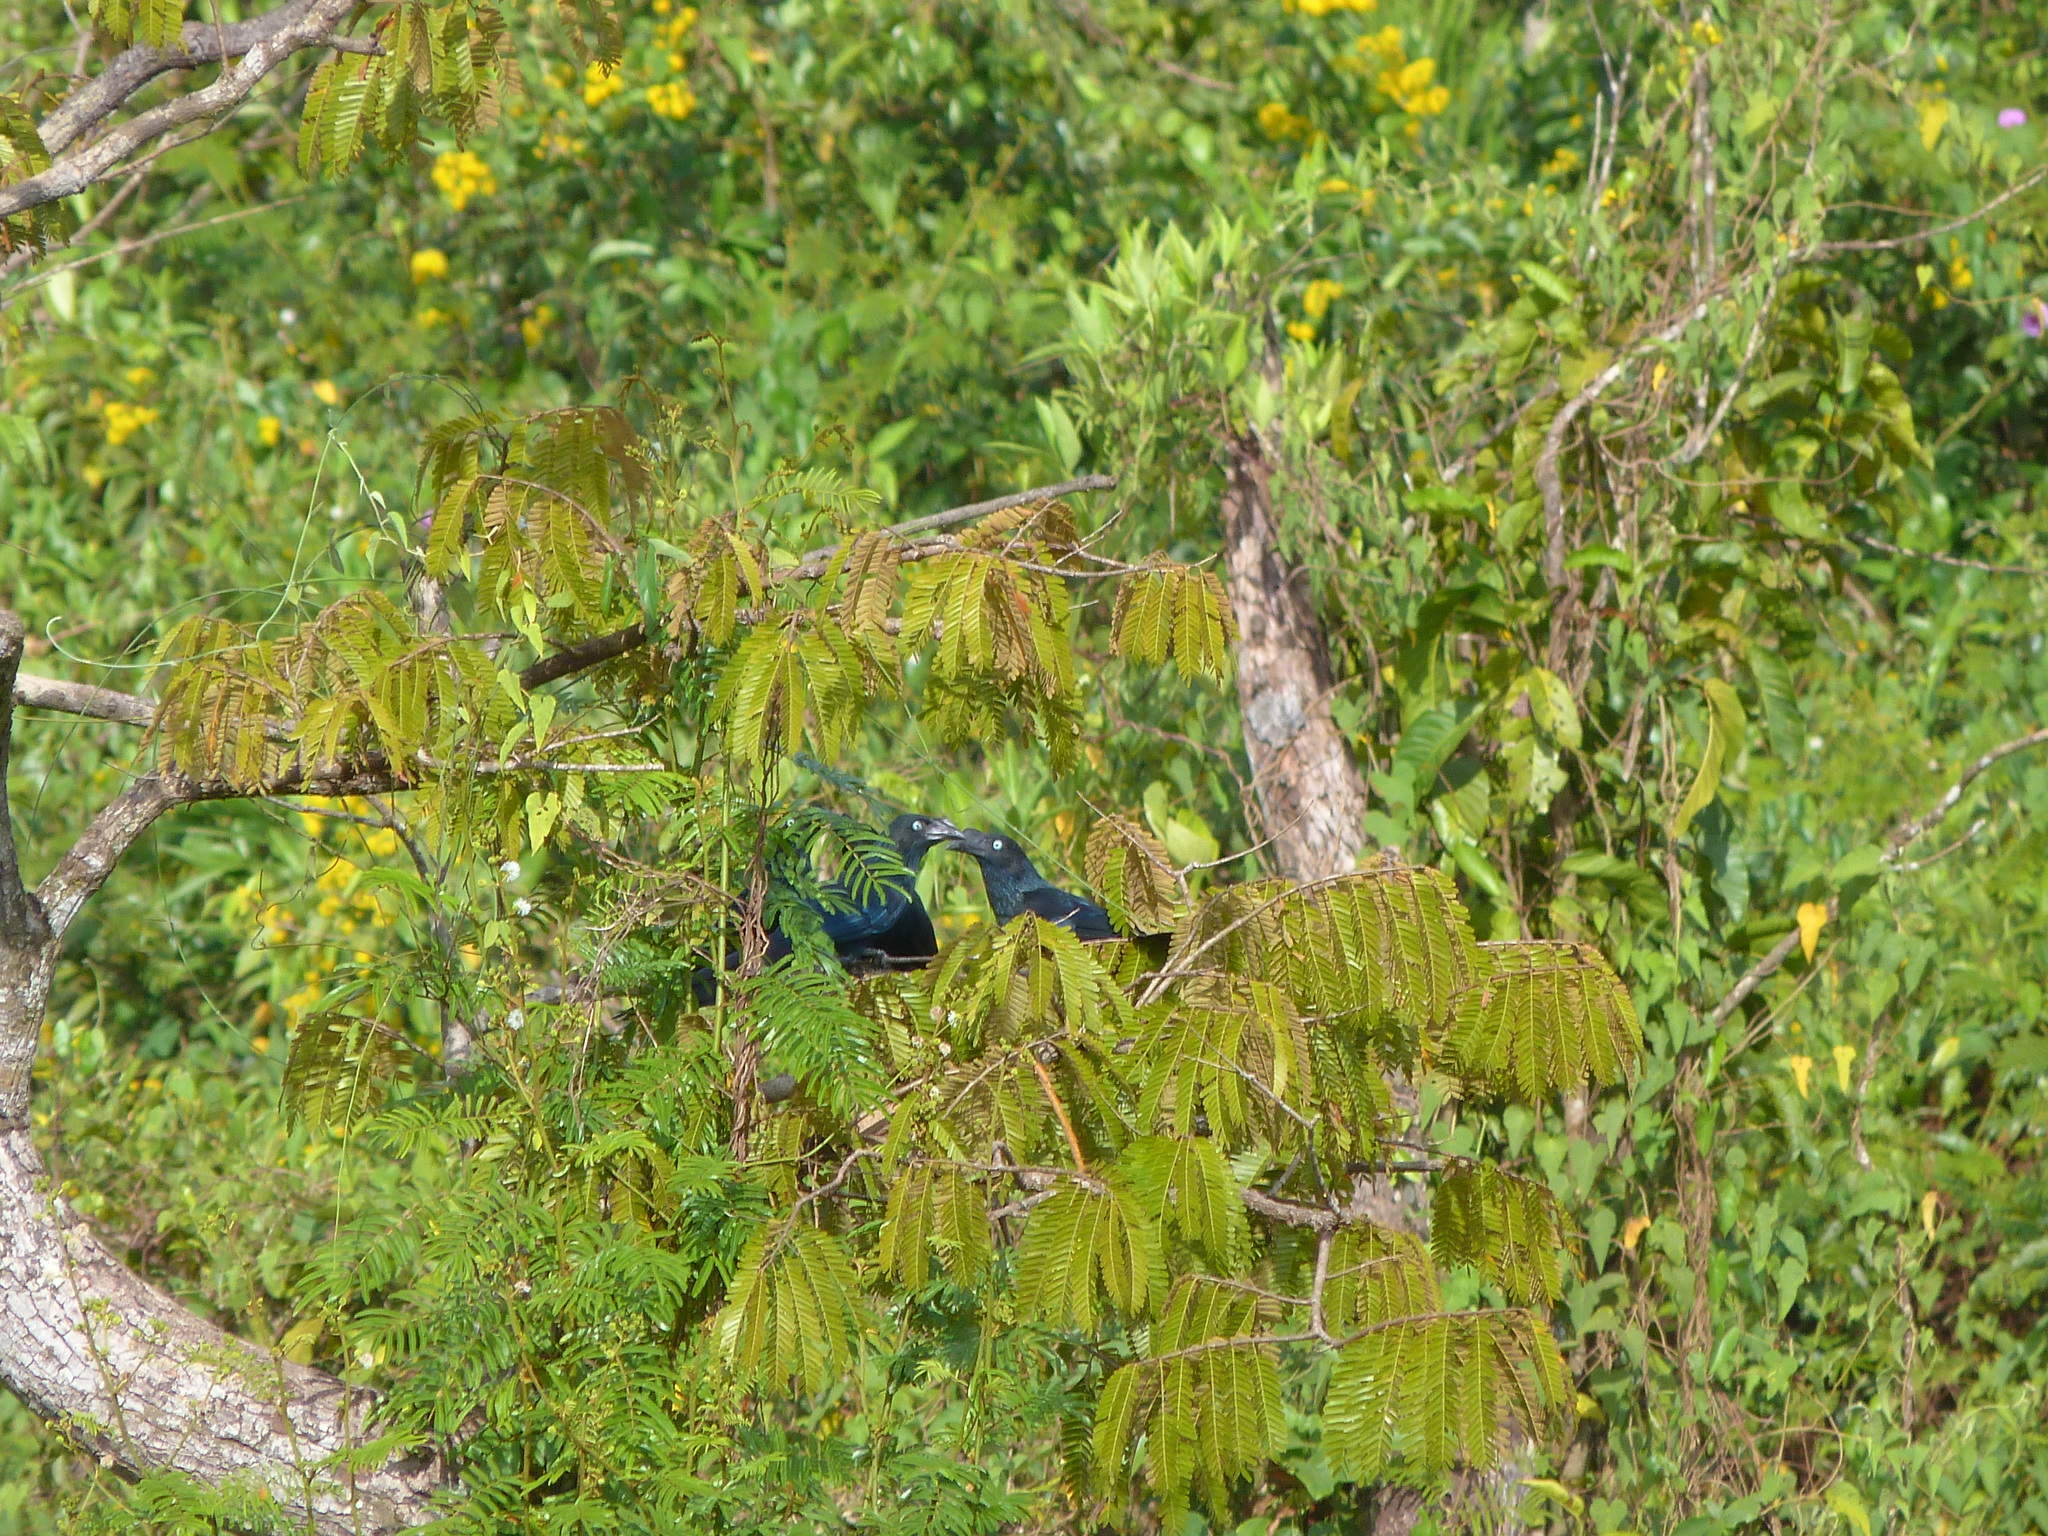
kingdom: Animalia
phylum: Chordata
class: Aves
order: Cuculiformes
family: Cuculidae
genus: Crotophaga
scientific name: Crotophaga major
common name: Greater ani
